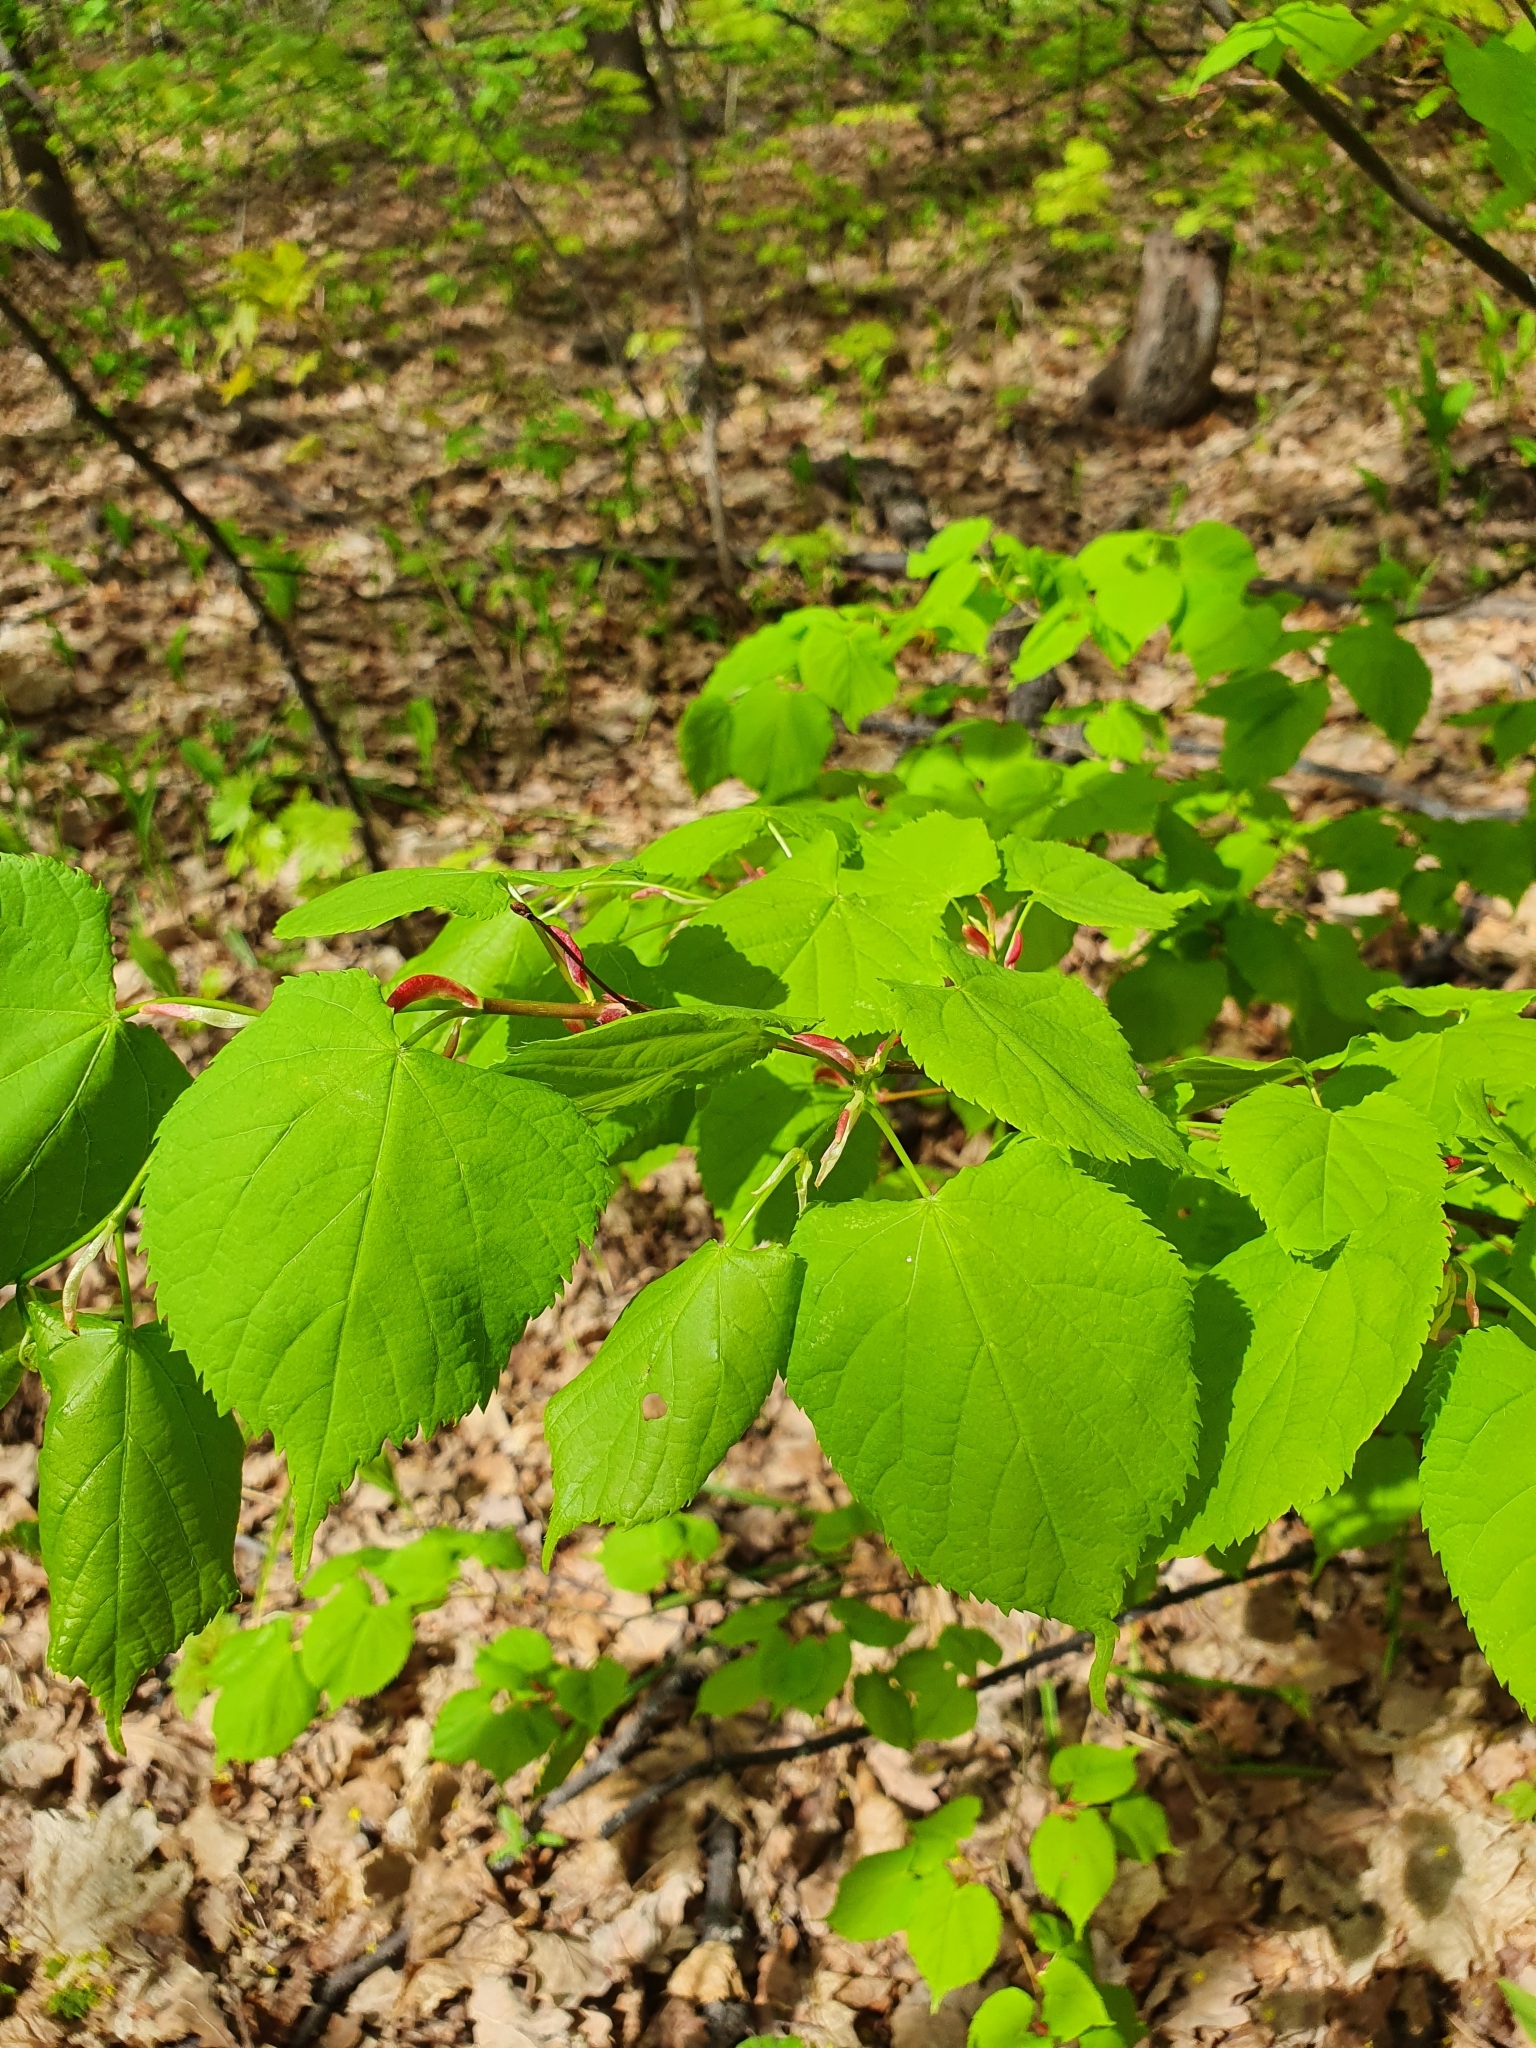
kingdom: Plantae
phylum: Tracheophyta
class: Magnoliopsida
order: Malvales
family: Malvaceae
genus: Tilia
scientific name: Tilia cordata
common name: Small-leaved lime
